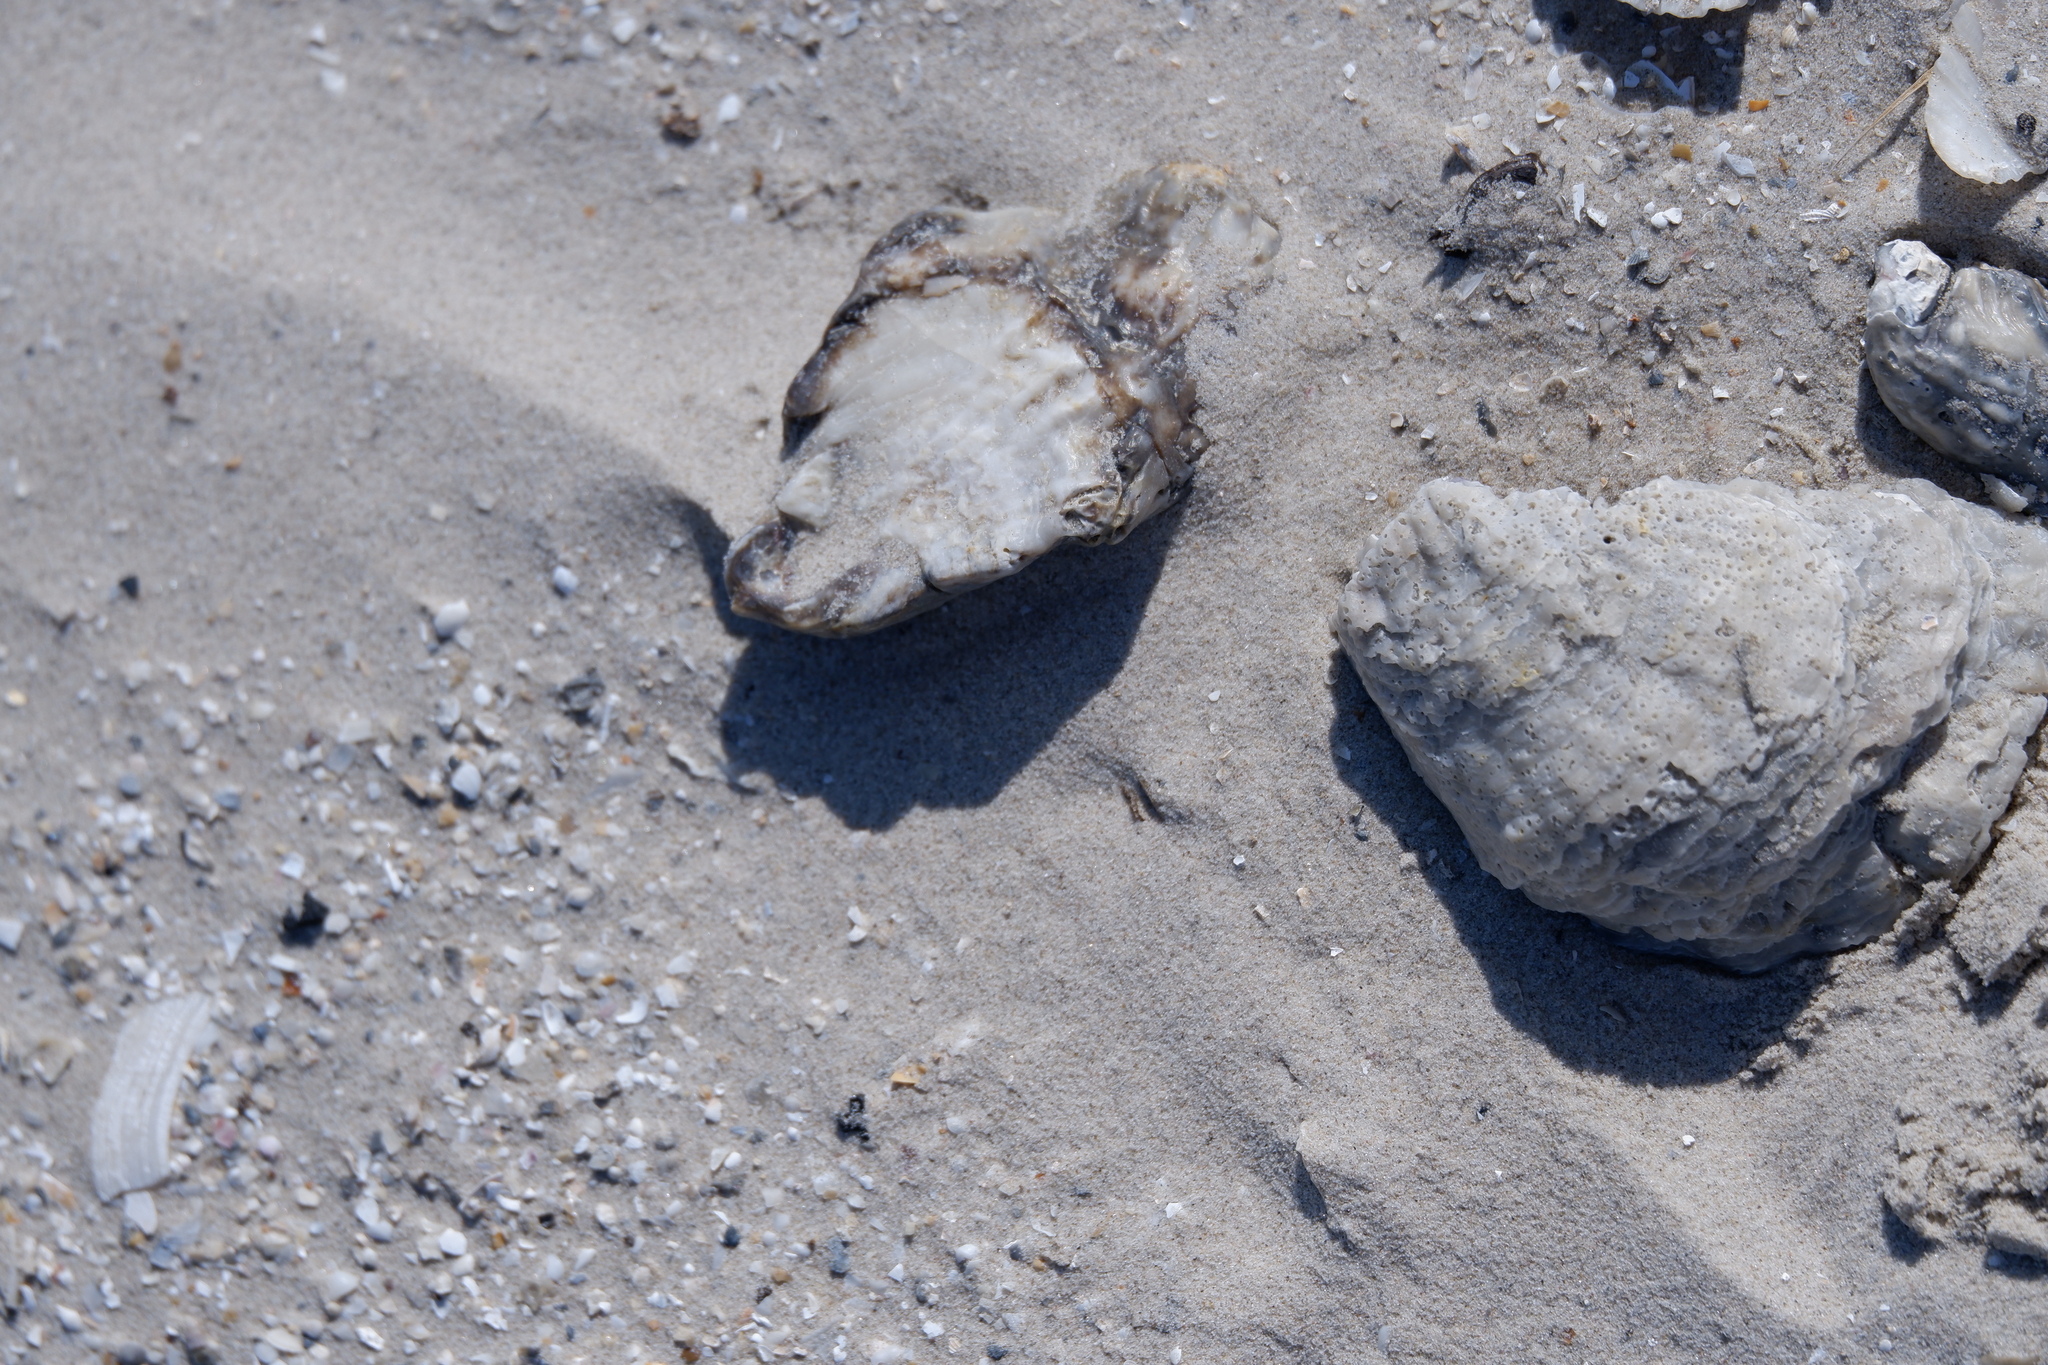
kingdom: Animalia
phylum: Mollusca
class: Bivalvia
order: Ostreida
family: Ostreidae
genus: Crassostrea
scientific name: Crassostrea virginica
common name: American oyster
